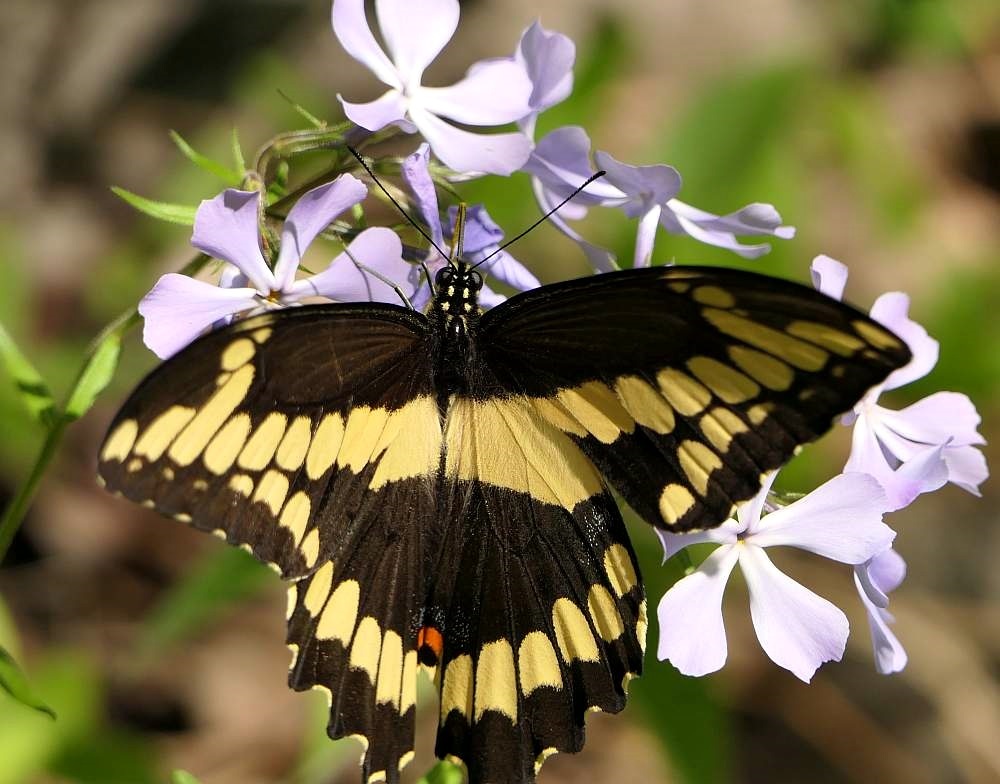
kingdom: Animalia
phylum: Arthropoda
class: Insecta
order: Lepidoptera
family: Papilionidae
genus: Papilio
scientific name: Papilio cresphontes
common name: Giant swallowtail
